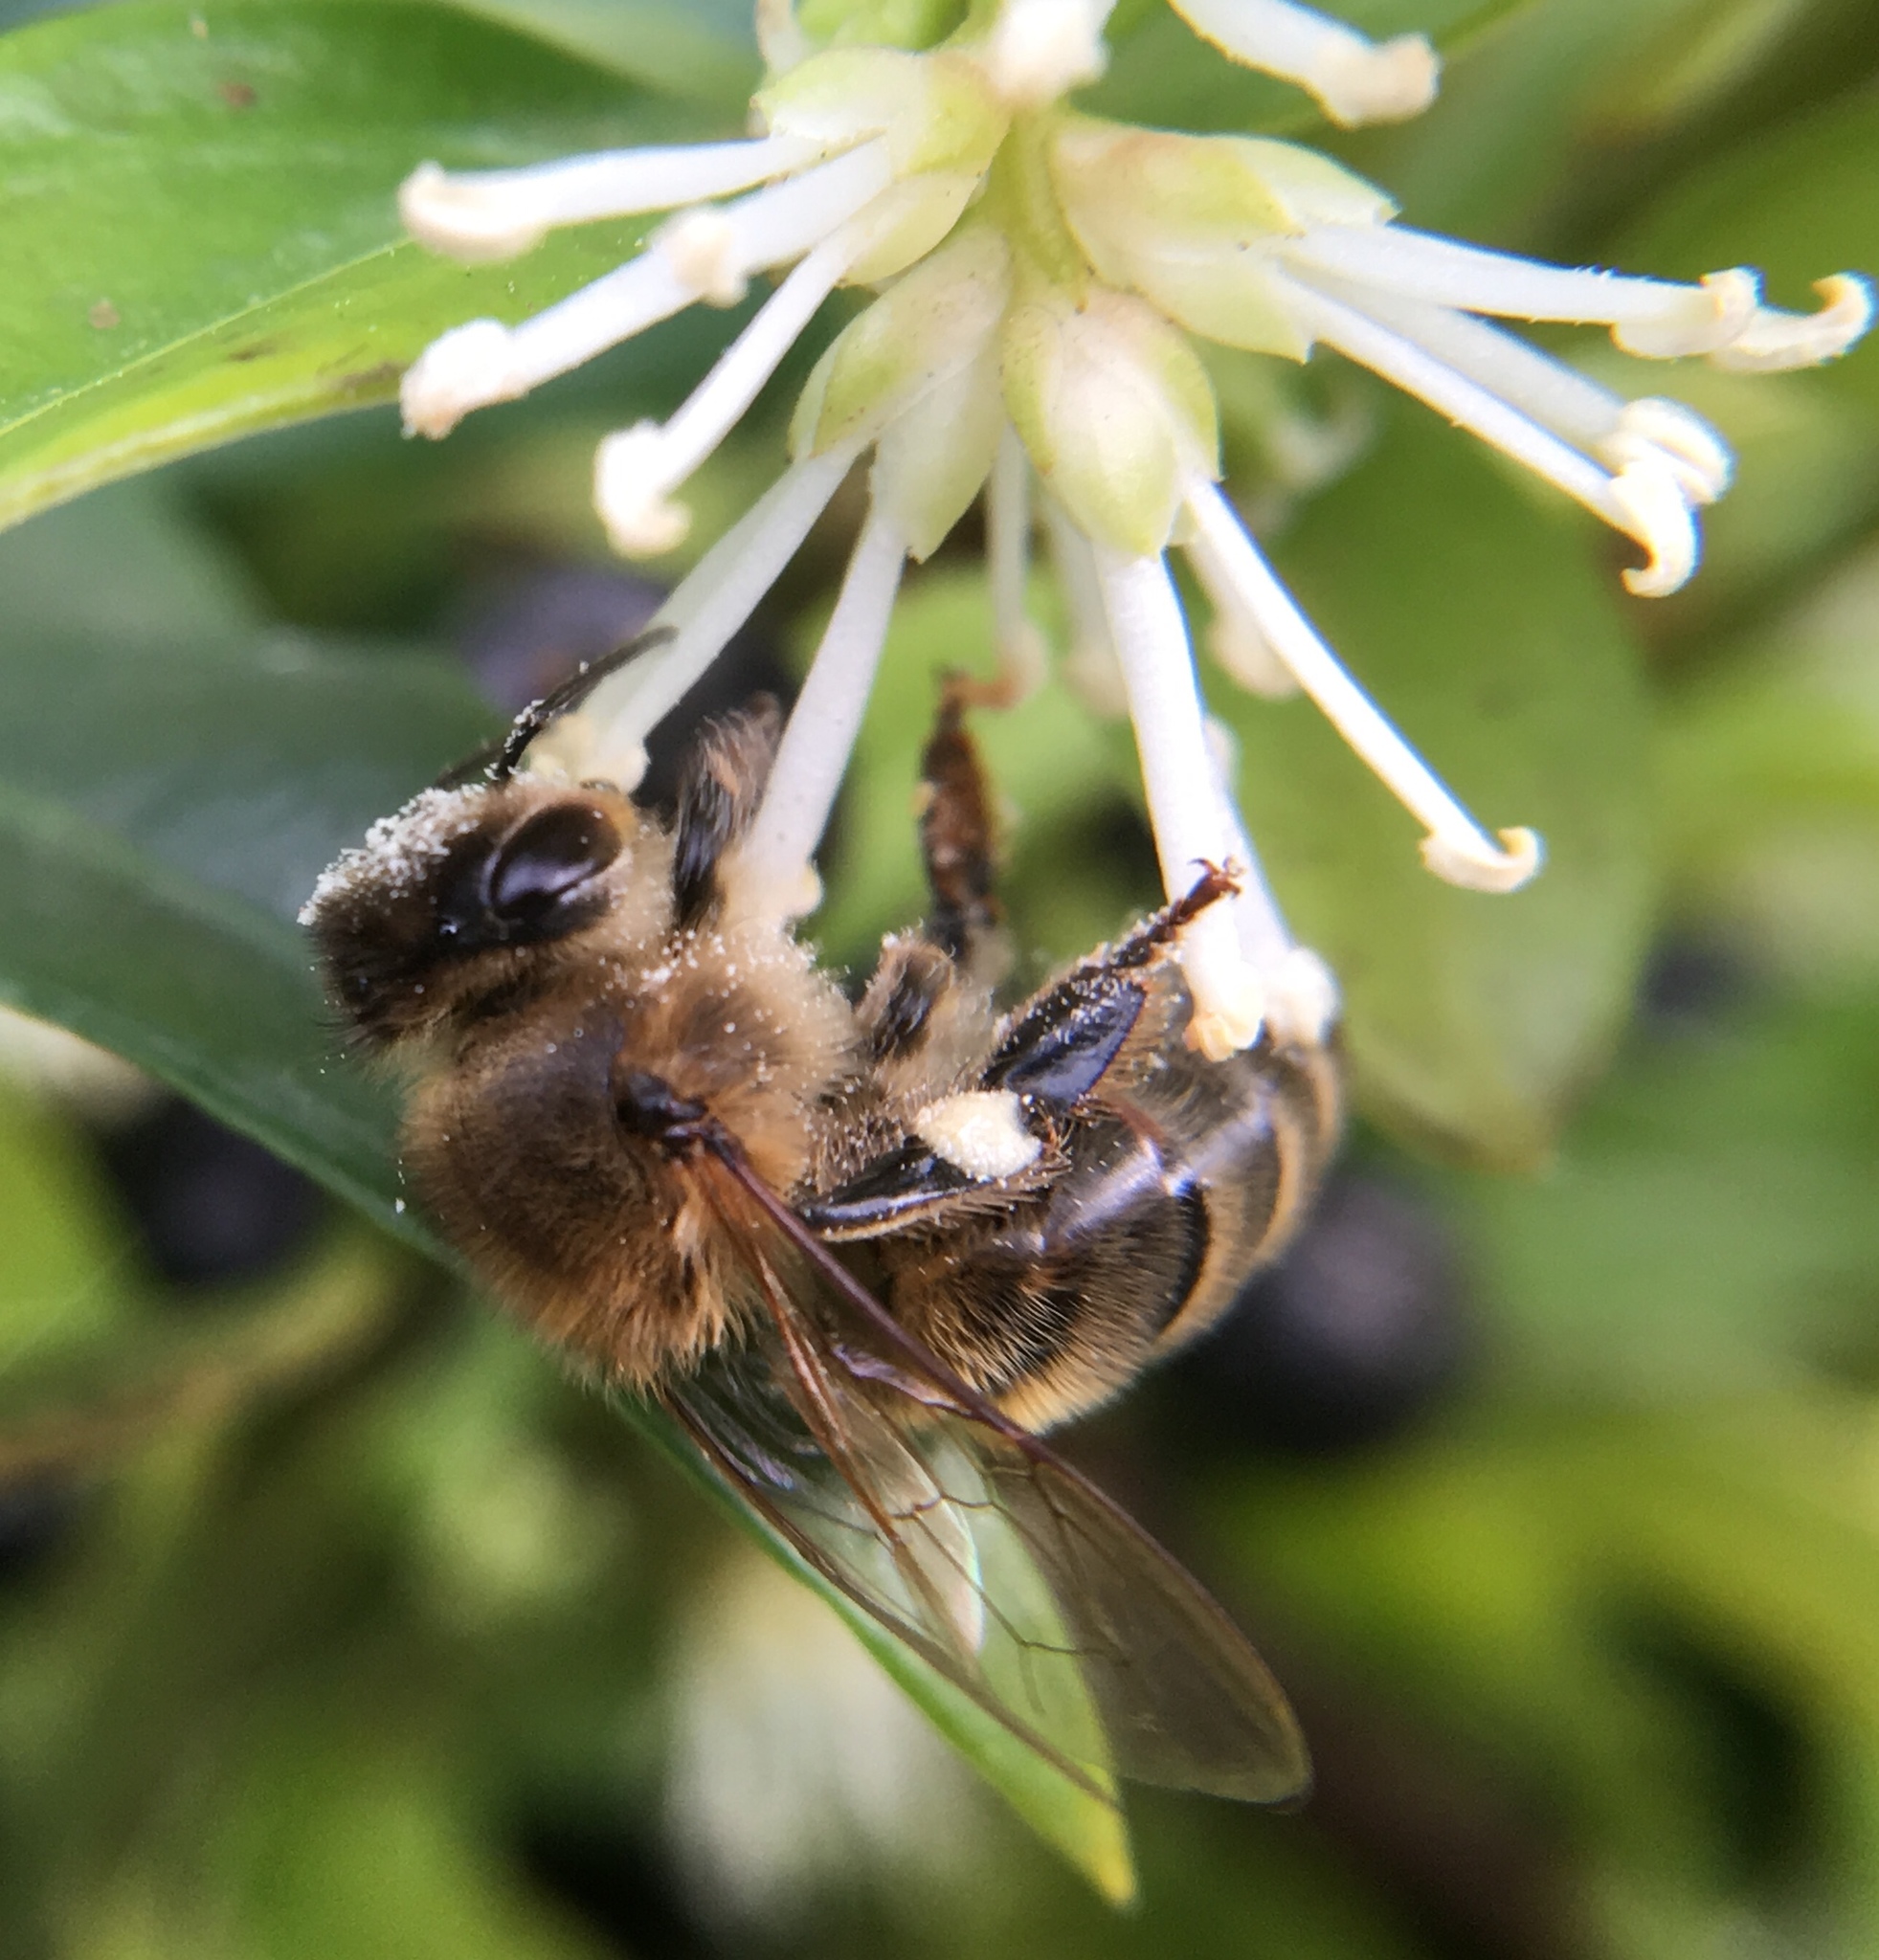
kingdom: Animalia
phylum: Arthropoda
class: Insecta
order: Hymenoptera
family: Apidae
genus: Apis
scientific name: Apis mellifera
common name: Honey bee
